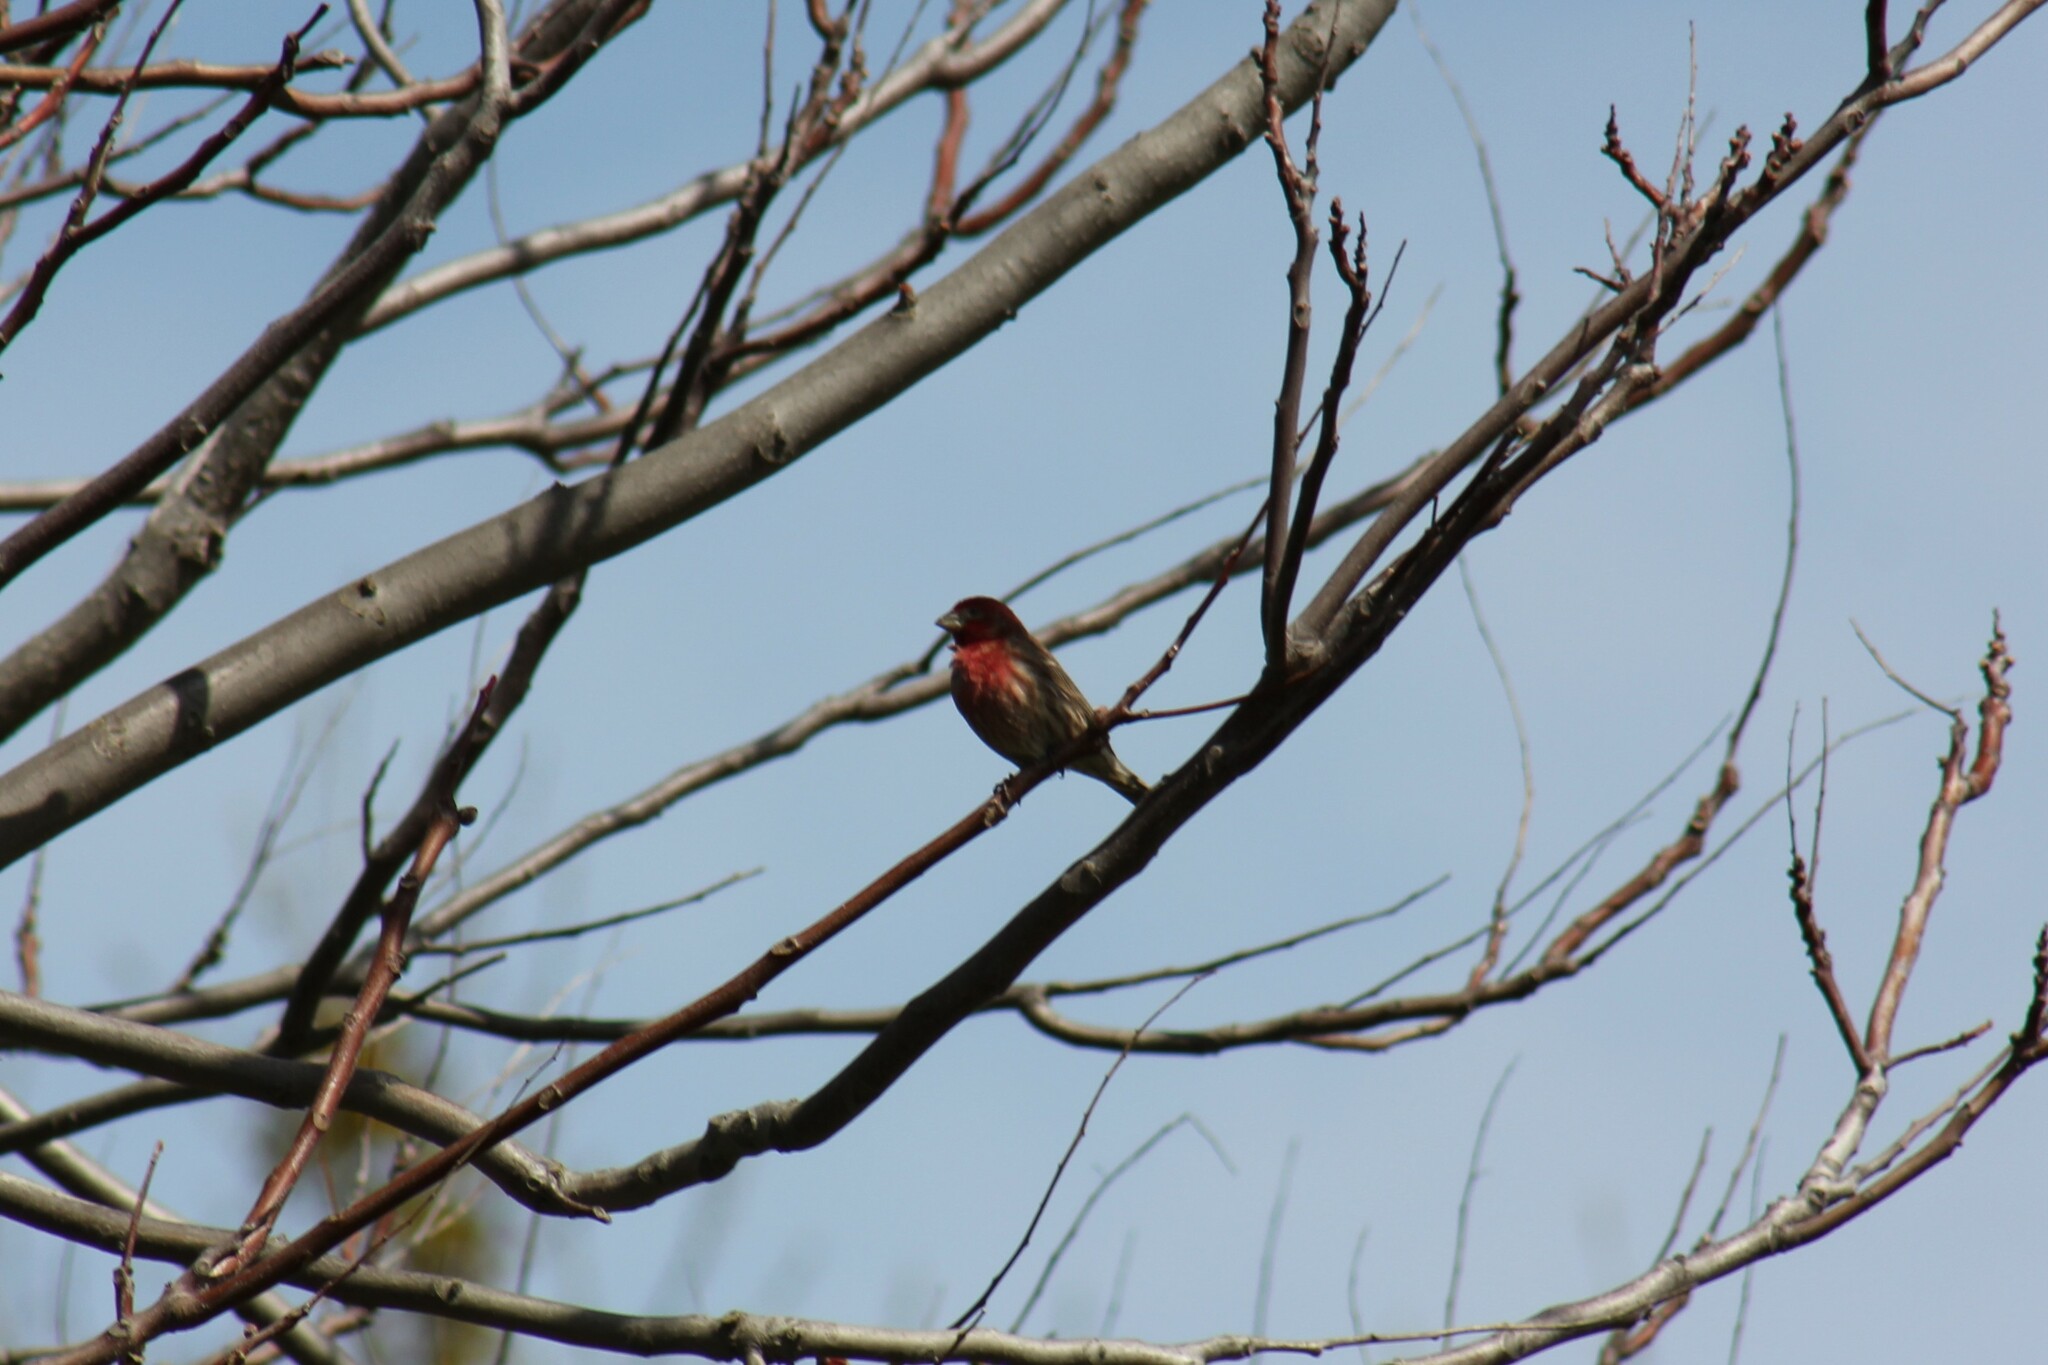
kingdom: Animalia
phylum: Chordata
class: Aves
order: Passeriformes
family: Fringillidae
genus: Haemorhous
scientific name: Haemorhous mexicanus
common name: House finch
